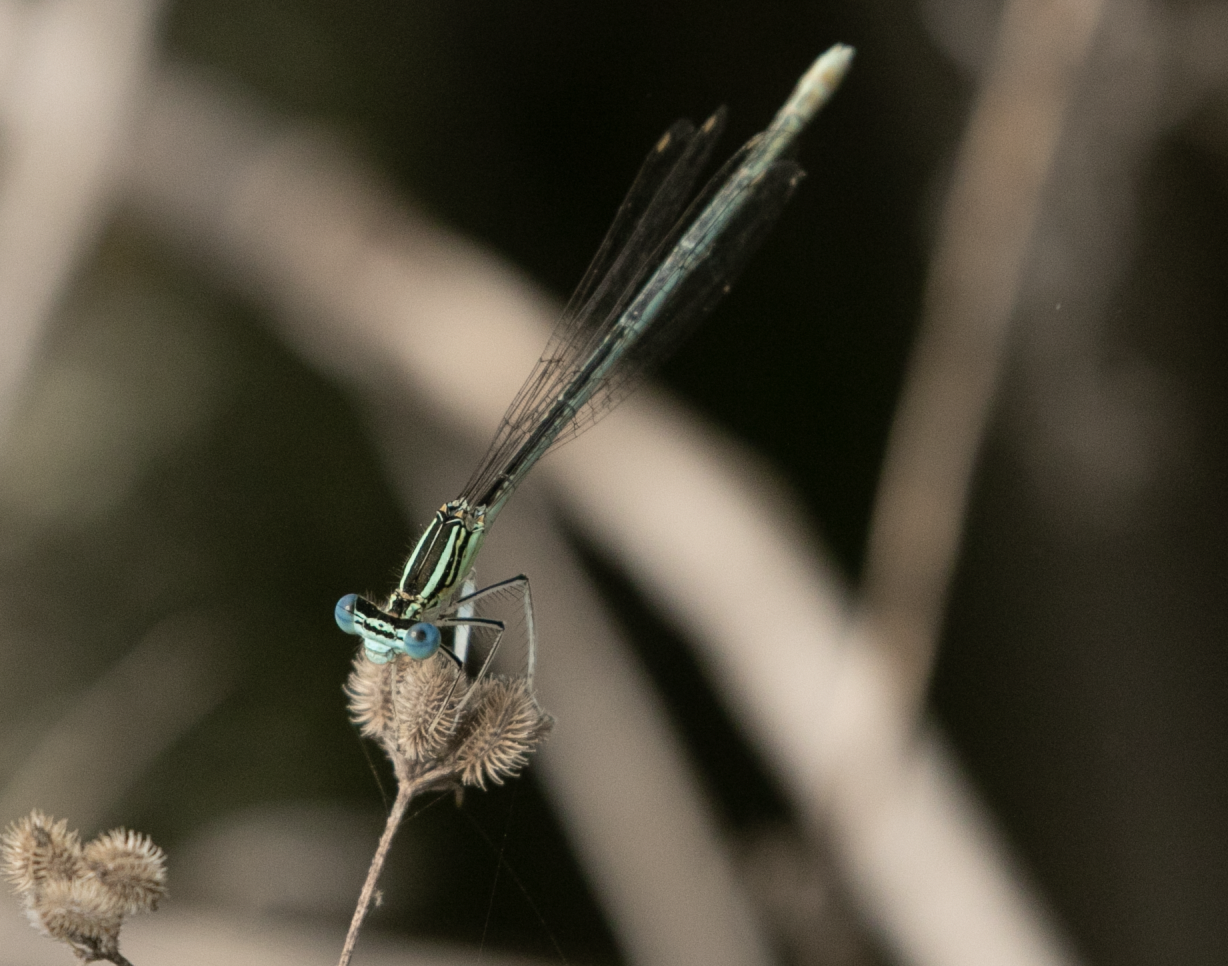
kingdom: Animalia
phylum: Arthropoda
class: Insecta
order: Odonata
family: Platycnemididae
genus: Platycnemis
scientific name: Platycnemis pennipes
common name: White-legged damselfly
